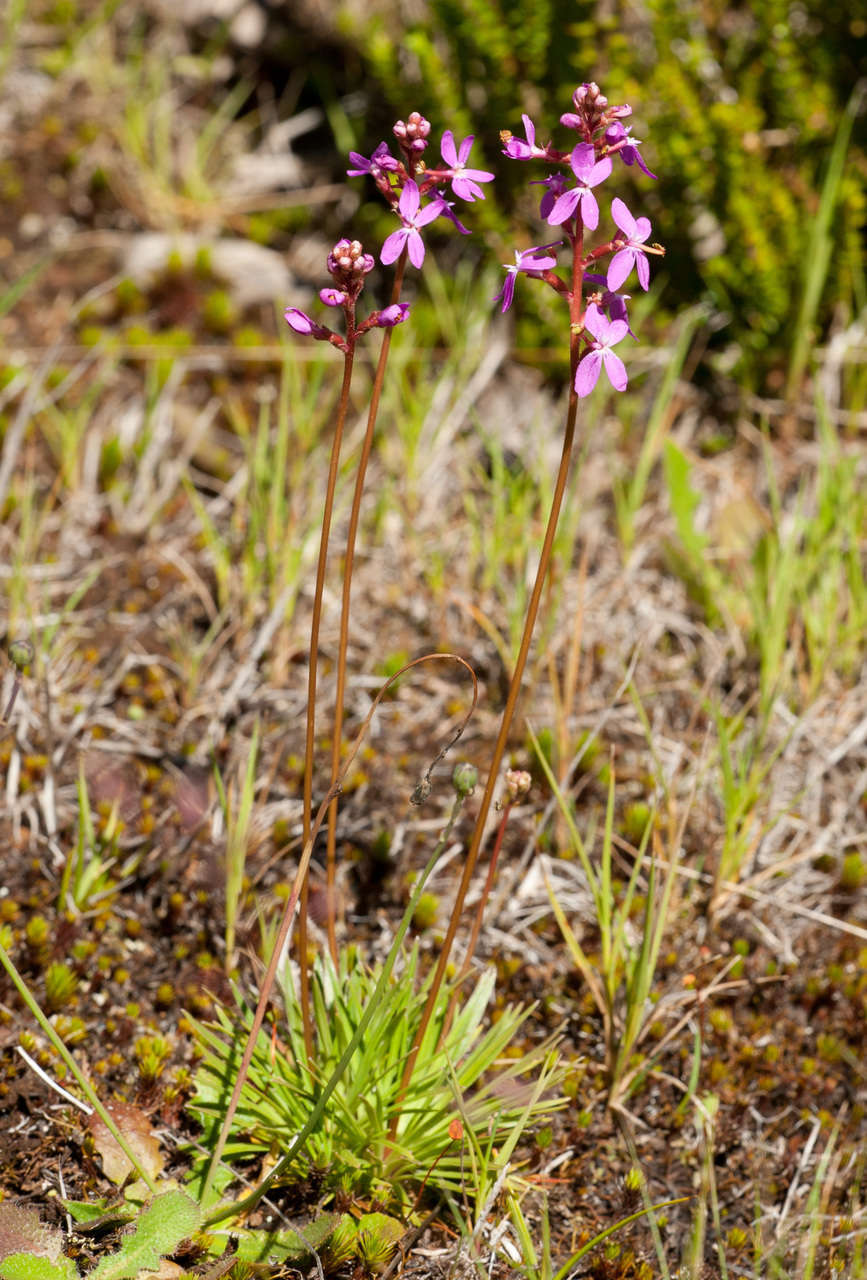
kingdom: Plantae
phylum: Tracheophyta
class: Magnoliopsida
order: Asterales
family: Stylidiaceae
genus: Stylidium
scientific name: Stylidium montanum
